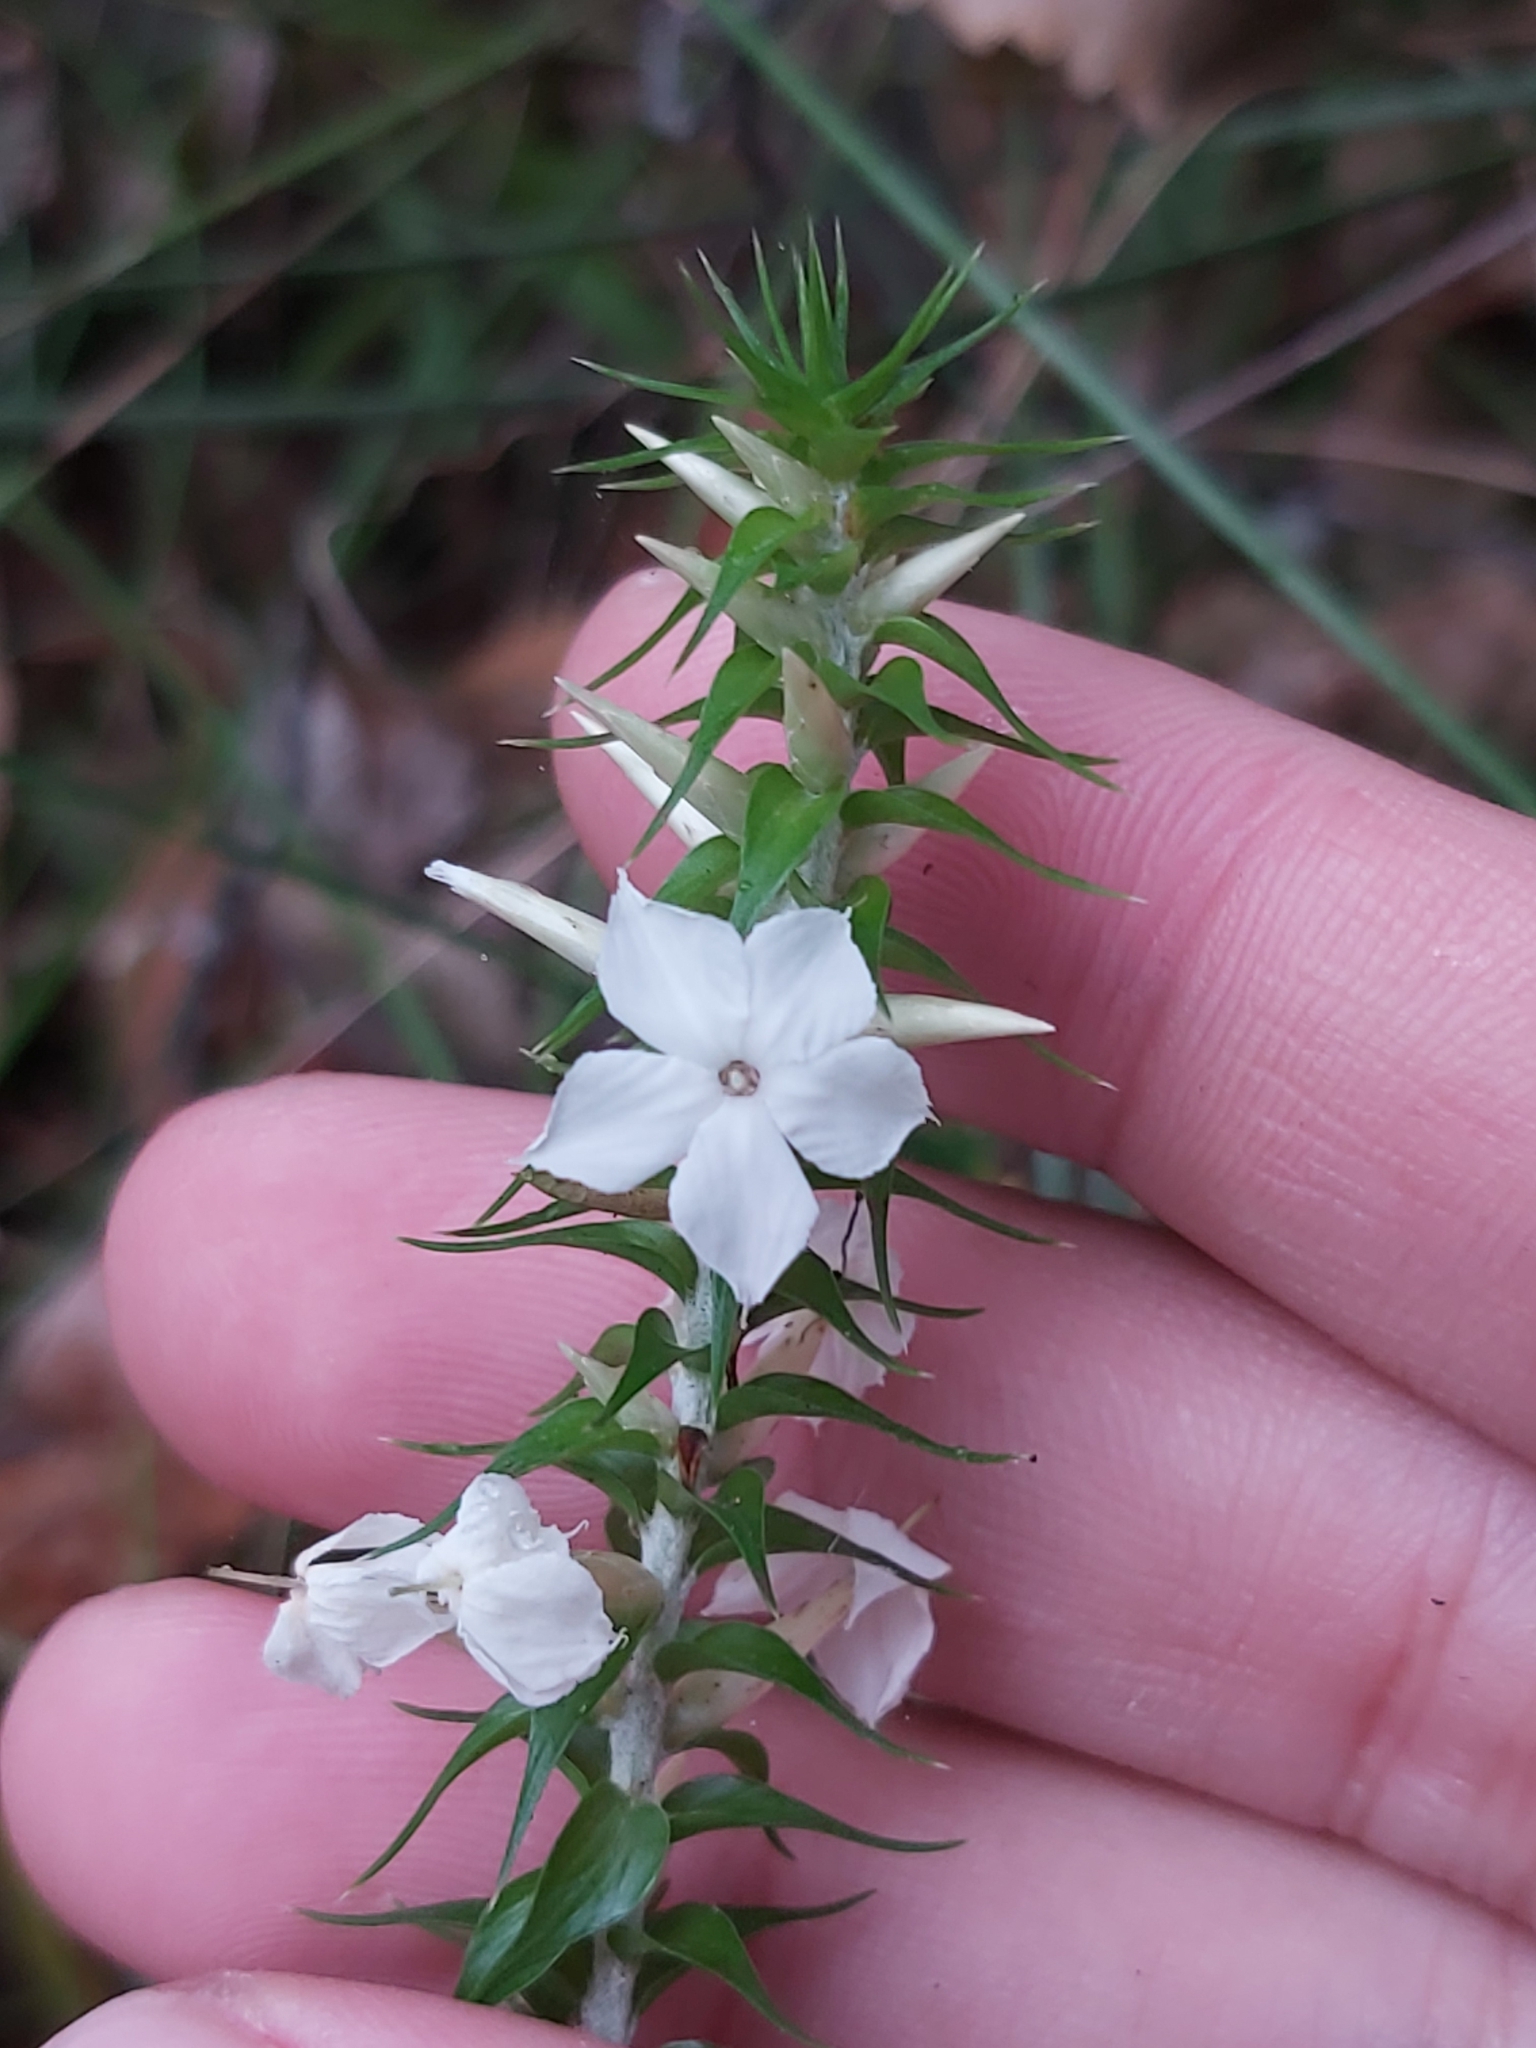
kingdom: Plantae
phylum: Tracheophyta
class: Magnoliopsida
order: Ericales
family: Ericaceae
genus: Woollsia
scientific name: Woollsia pungens
